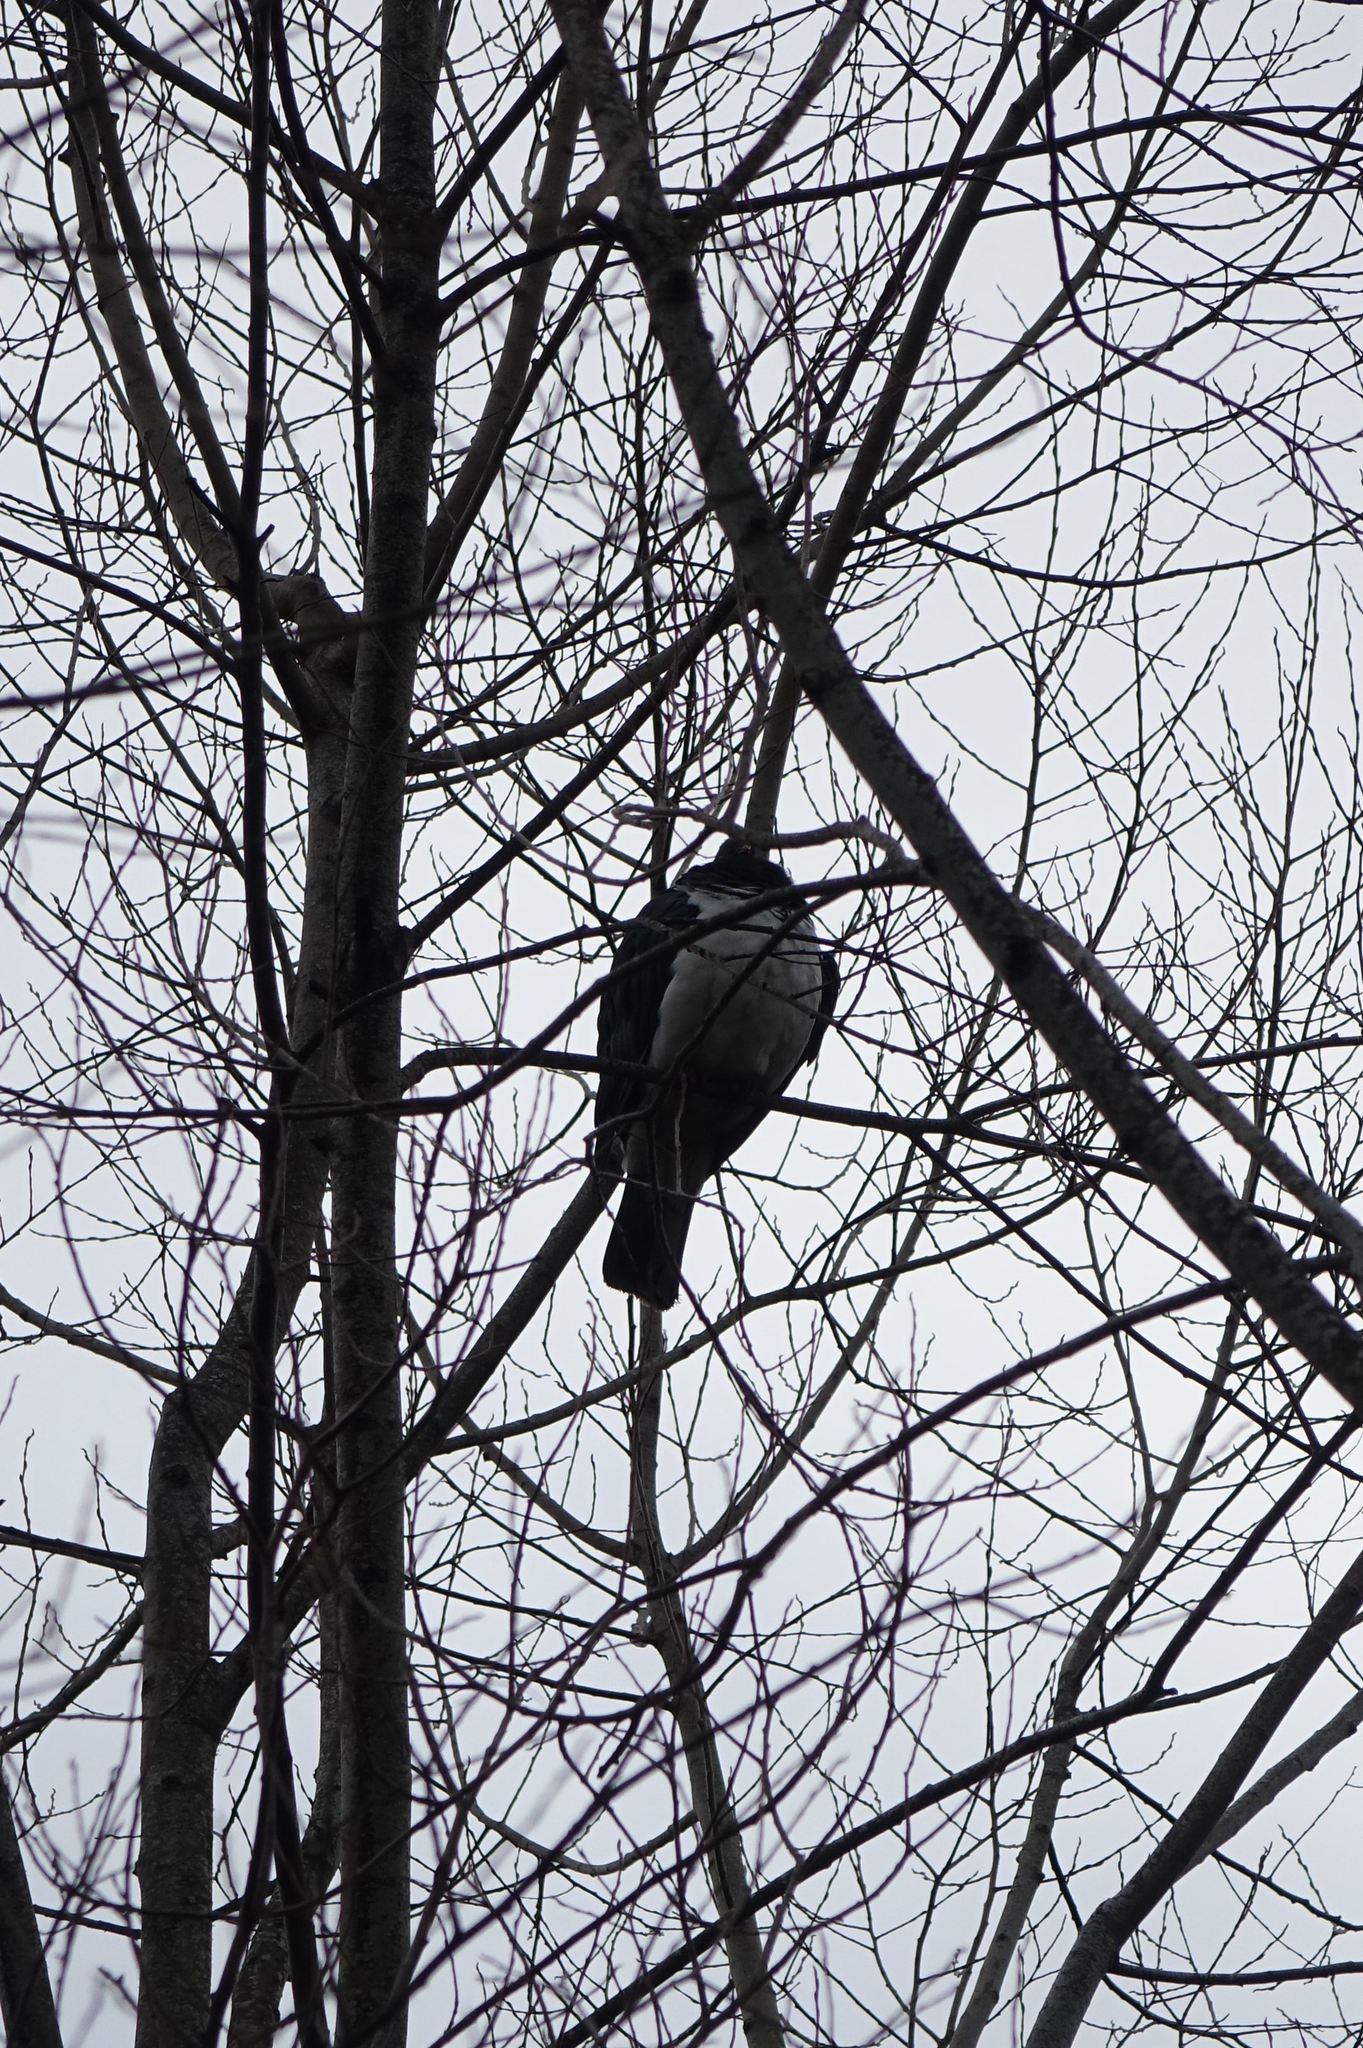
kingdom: Animalia
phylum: Chordata
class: Aves
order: Columbiformes
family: Columbidae
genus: Hemiphaga
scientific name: Hemiphaga novaeseelandiae
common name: New zealand pigeon
